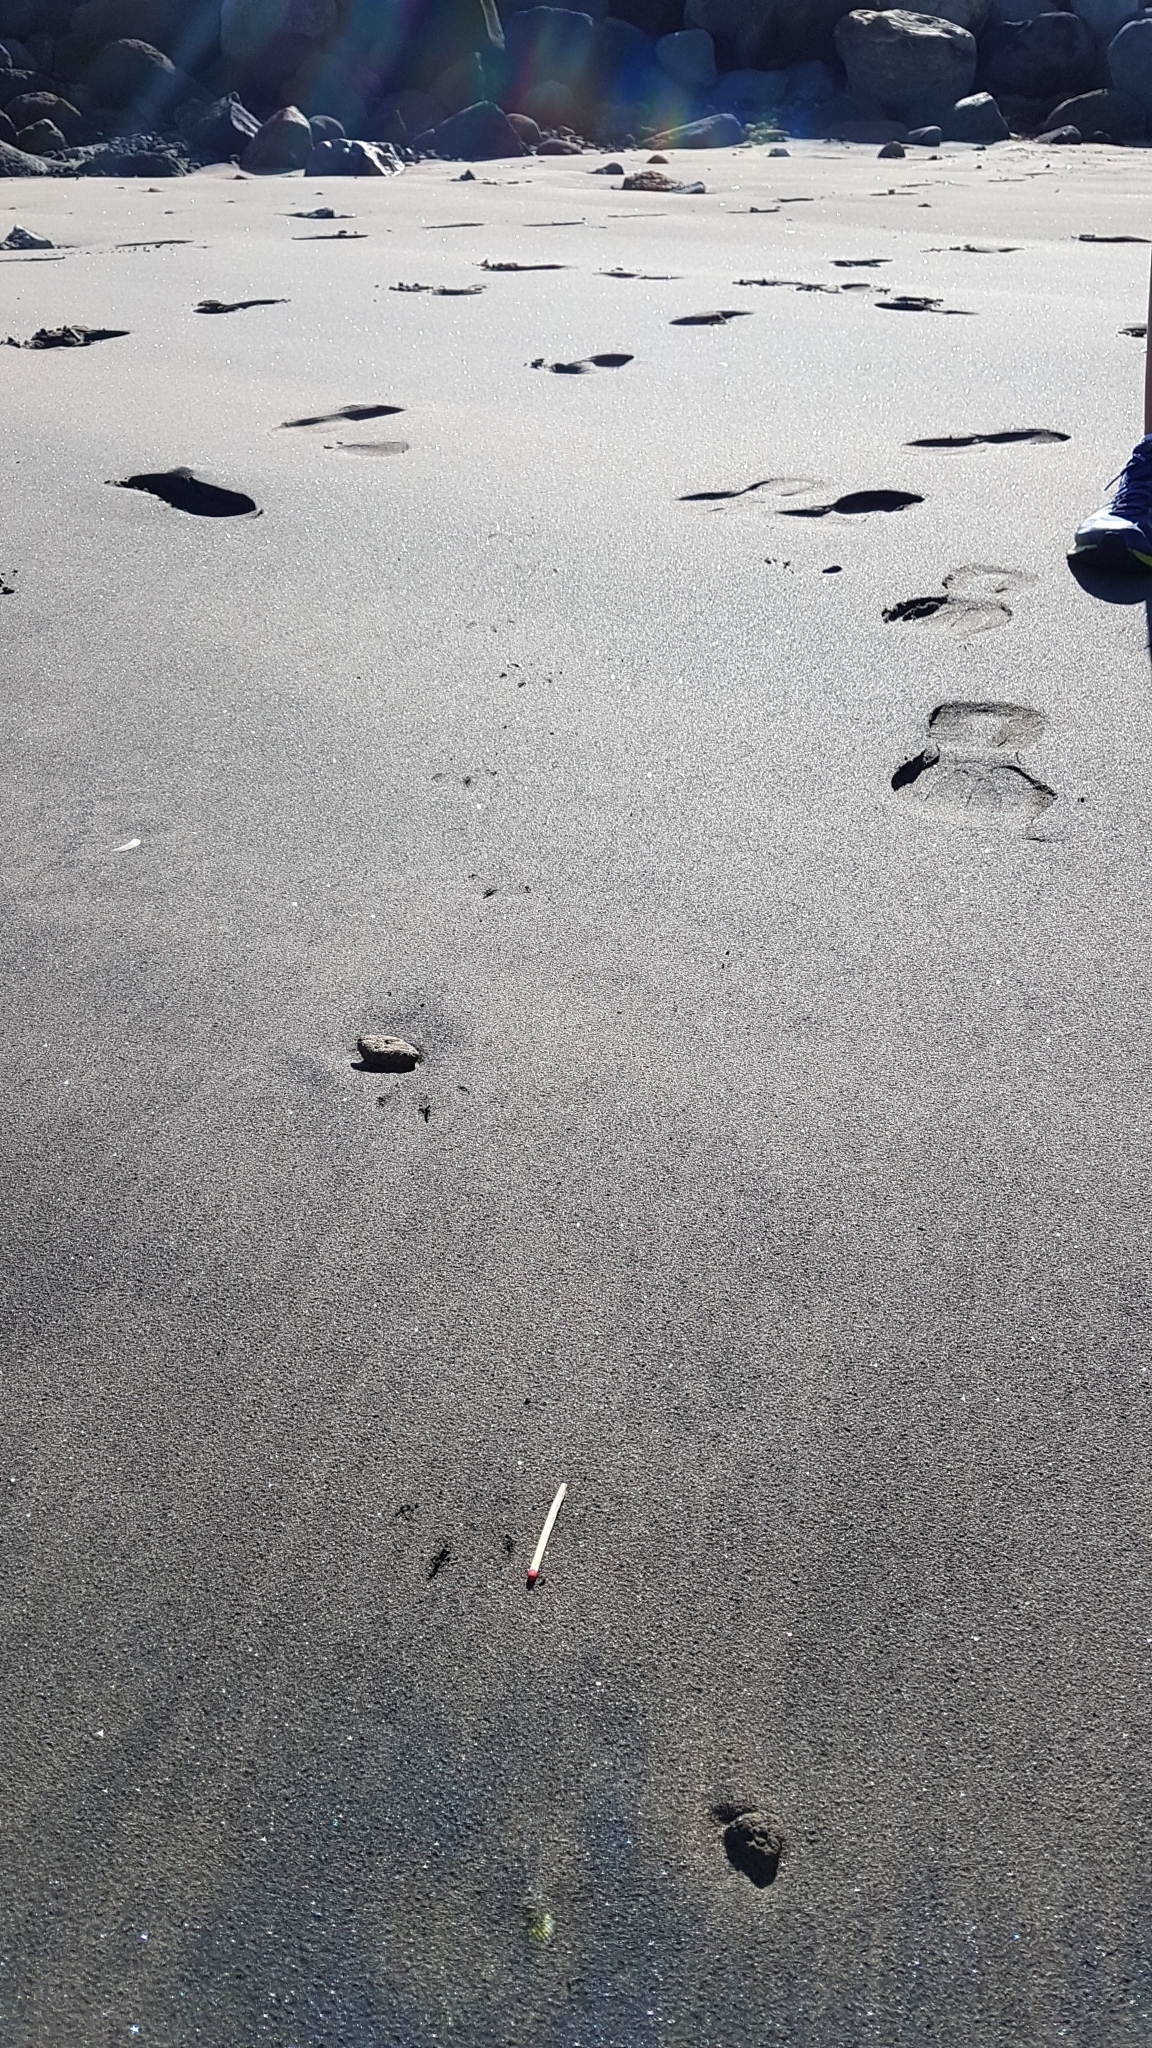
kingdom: Animalia
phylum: Chordata
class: Aves
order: Sphenisciformes
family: Spheniscidae
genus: Eudyptula
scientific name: Eudyptula minor
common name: Little penguin
